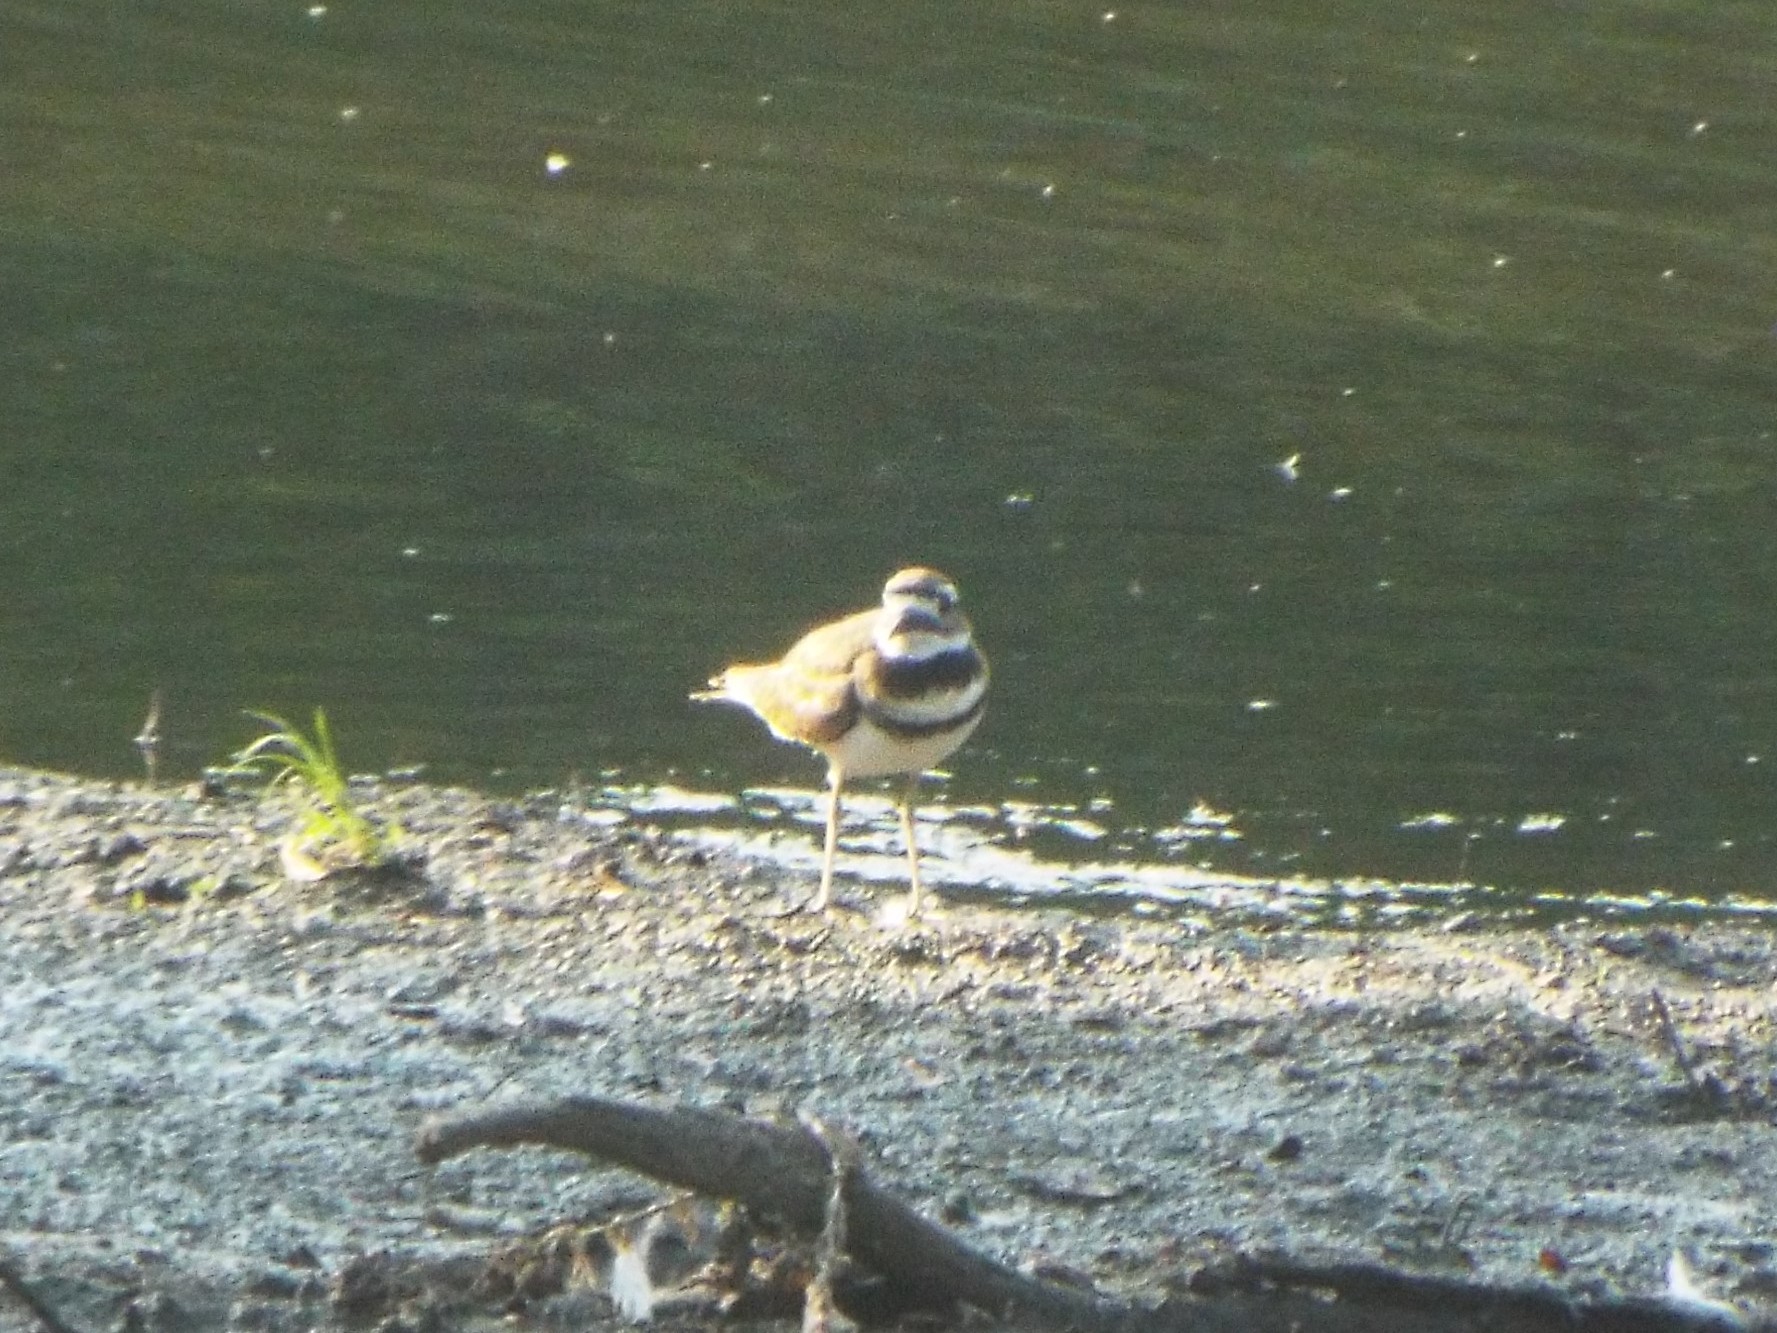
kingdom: Animalia
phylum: Chordata
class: Aves
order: Charadriiformes
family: Charadriidae
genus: Charadrius
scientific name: Charadrius vociferus
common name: Killdeer
